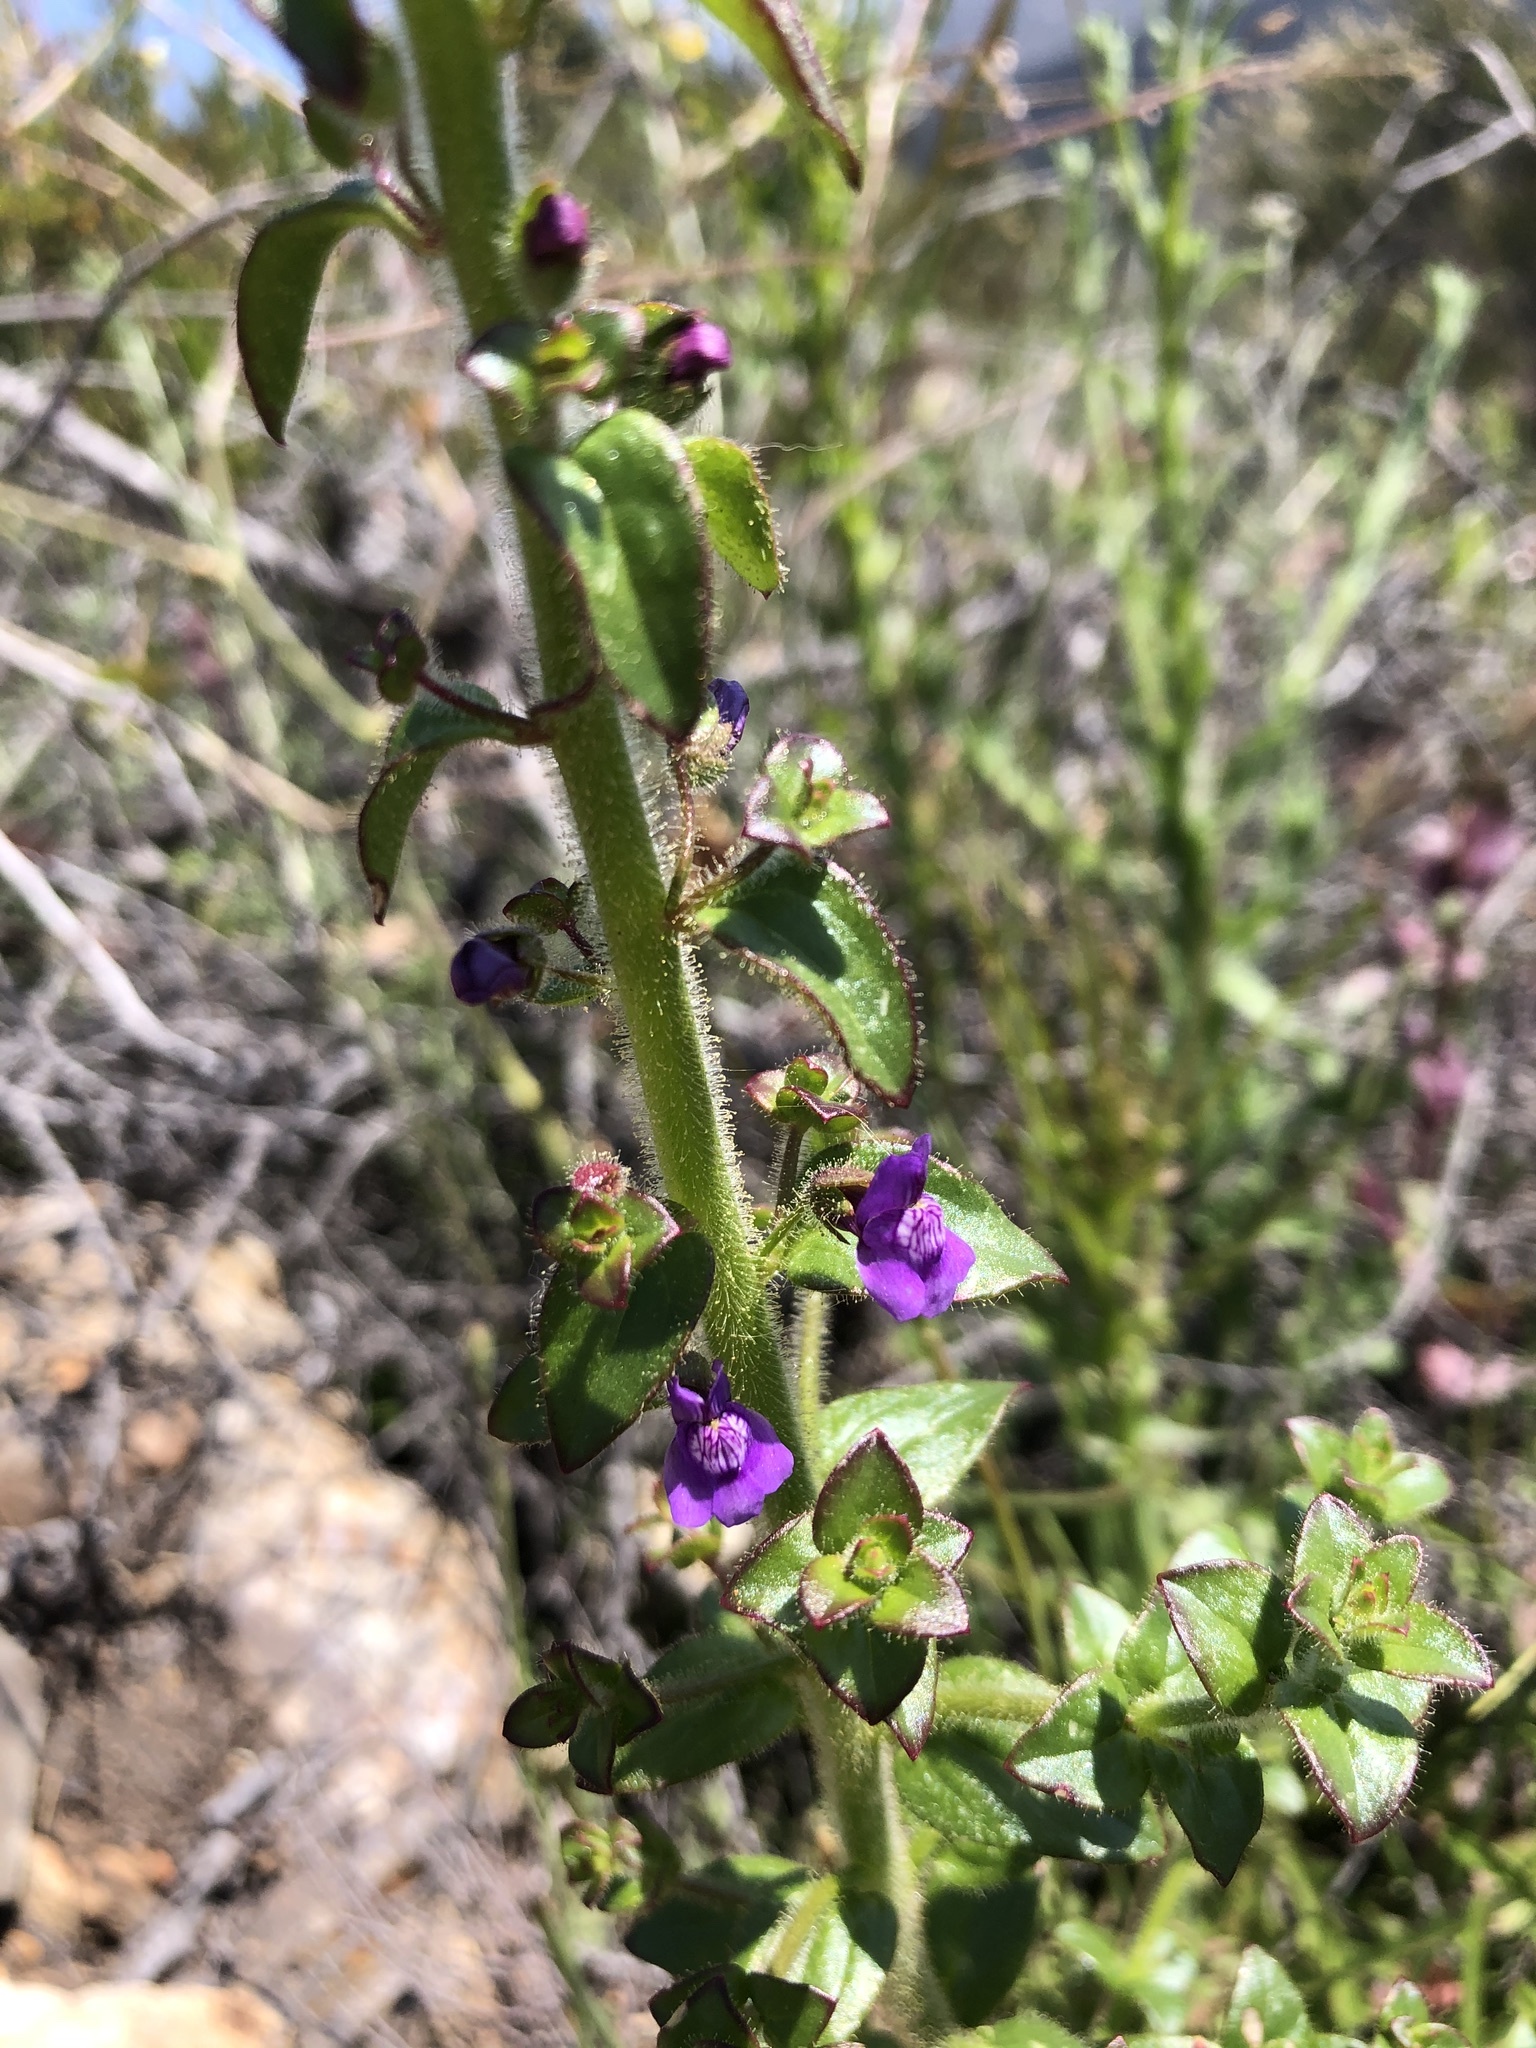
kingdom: Plantae
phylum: Tracheophyta
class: Magnoliopsida
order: Lamiales
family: Plantaginaceae
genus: Sairocarpus
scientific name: Sairocarpus nuttallianus
